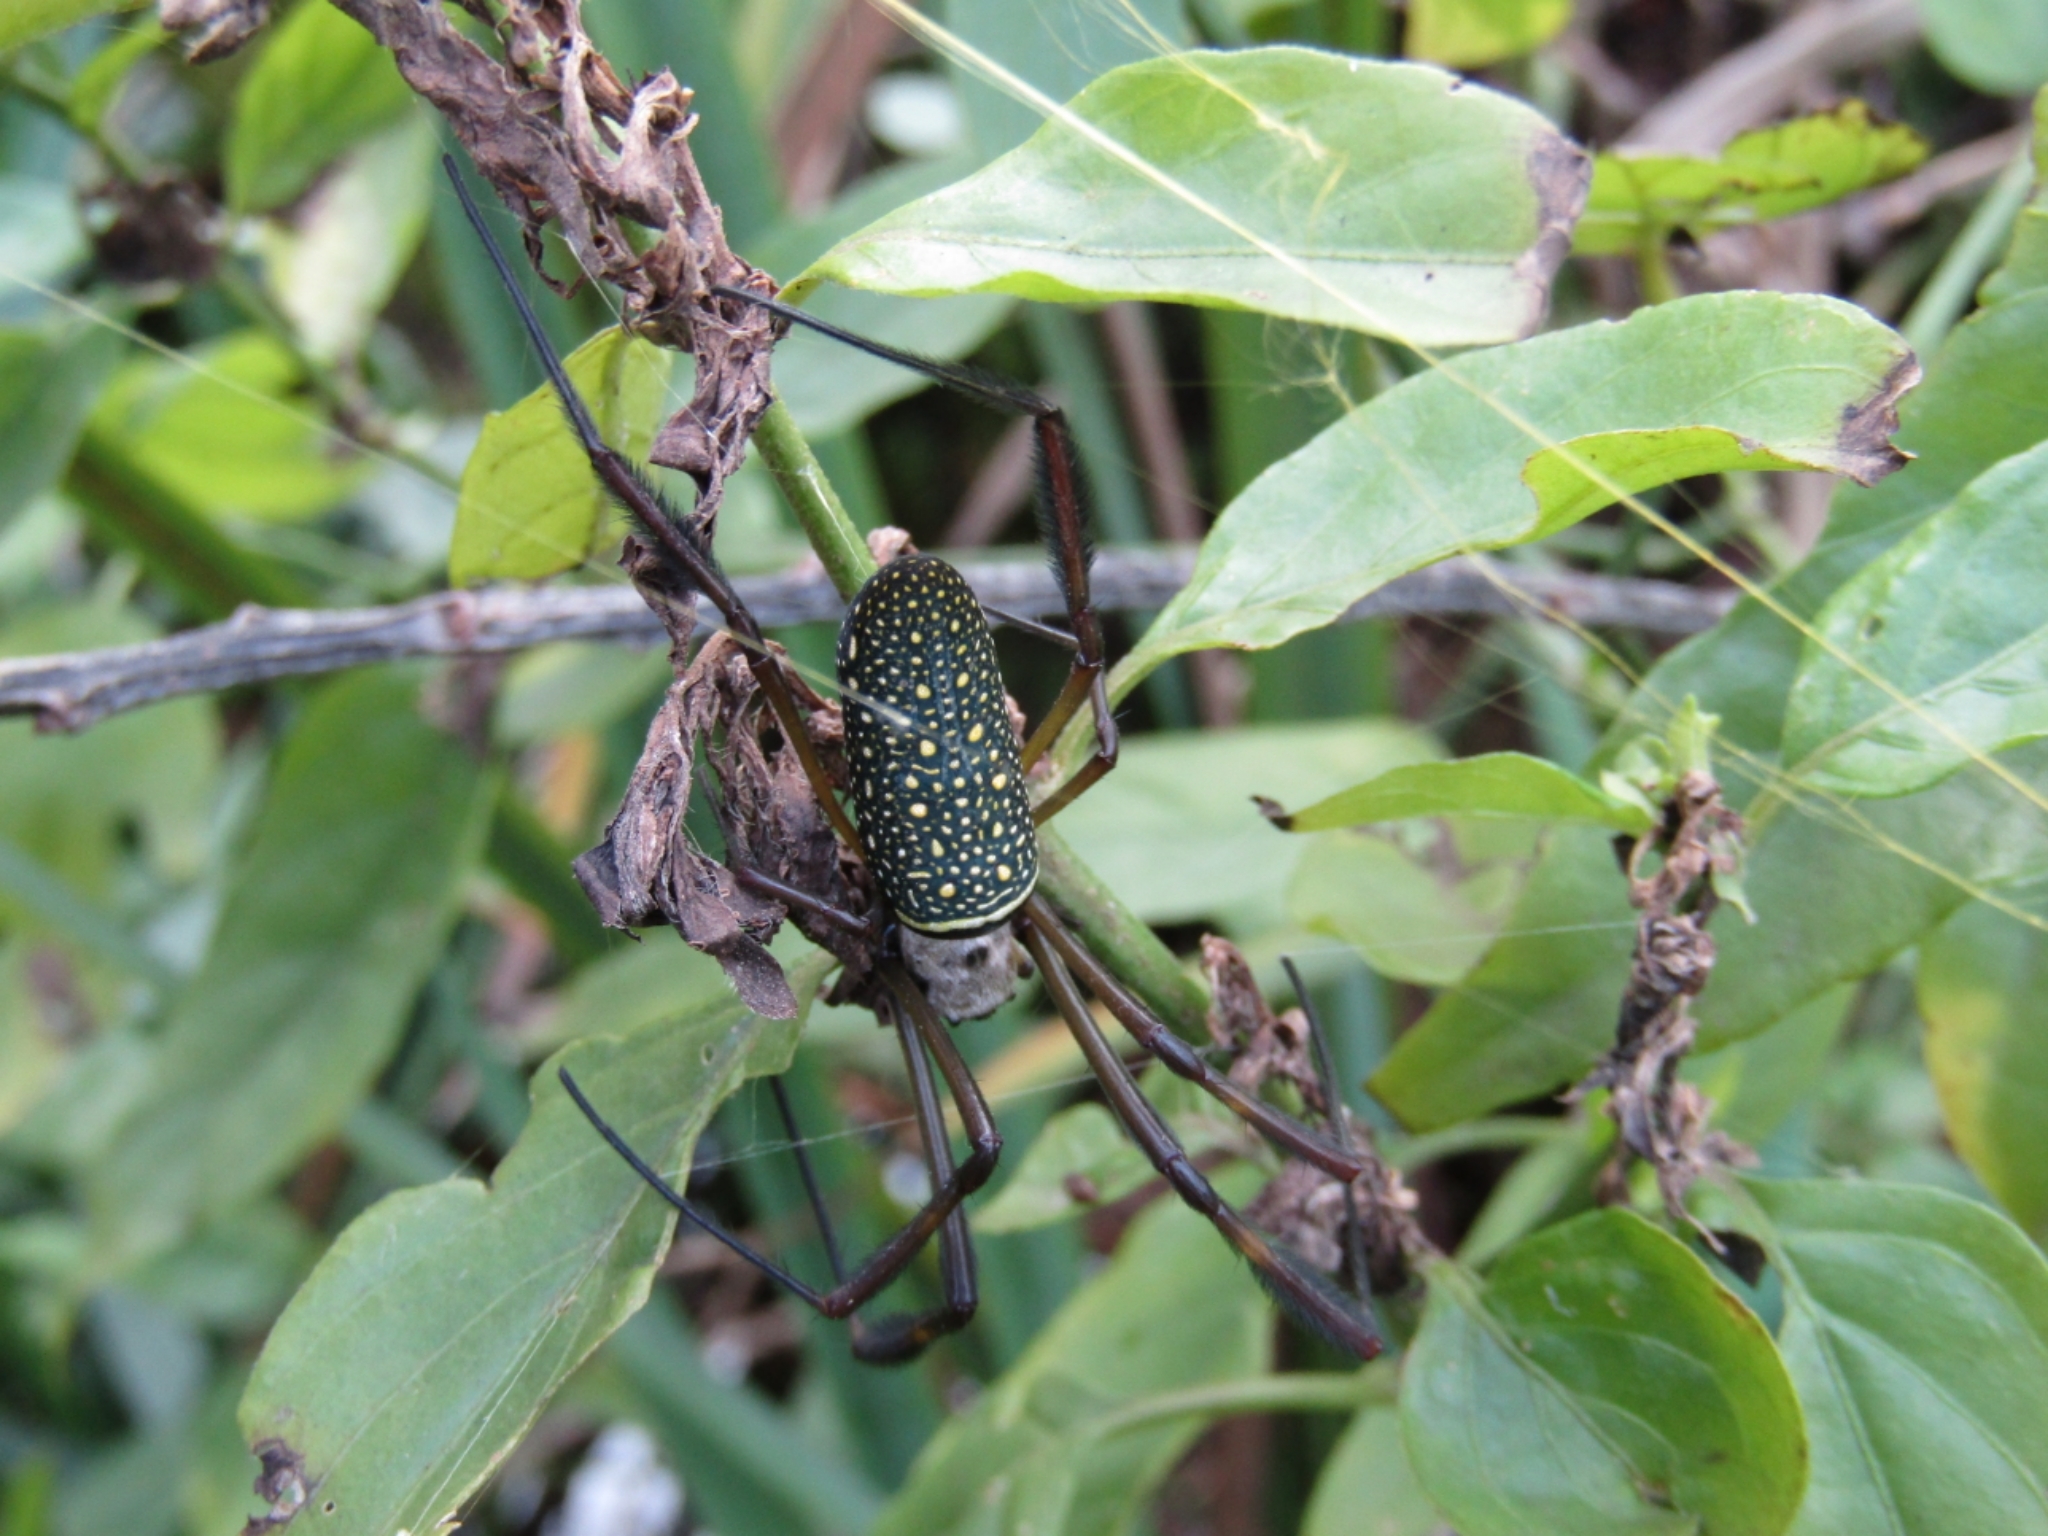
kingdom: Animalia
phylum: Arthropoda
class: Arachnida
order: Araneae
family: Araneidae
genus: Trichonephila
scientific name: Trichonephila clavipes
